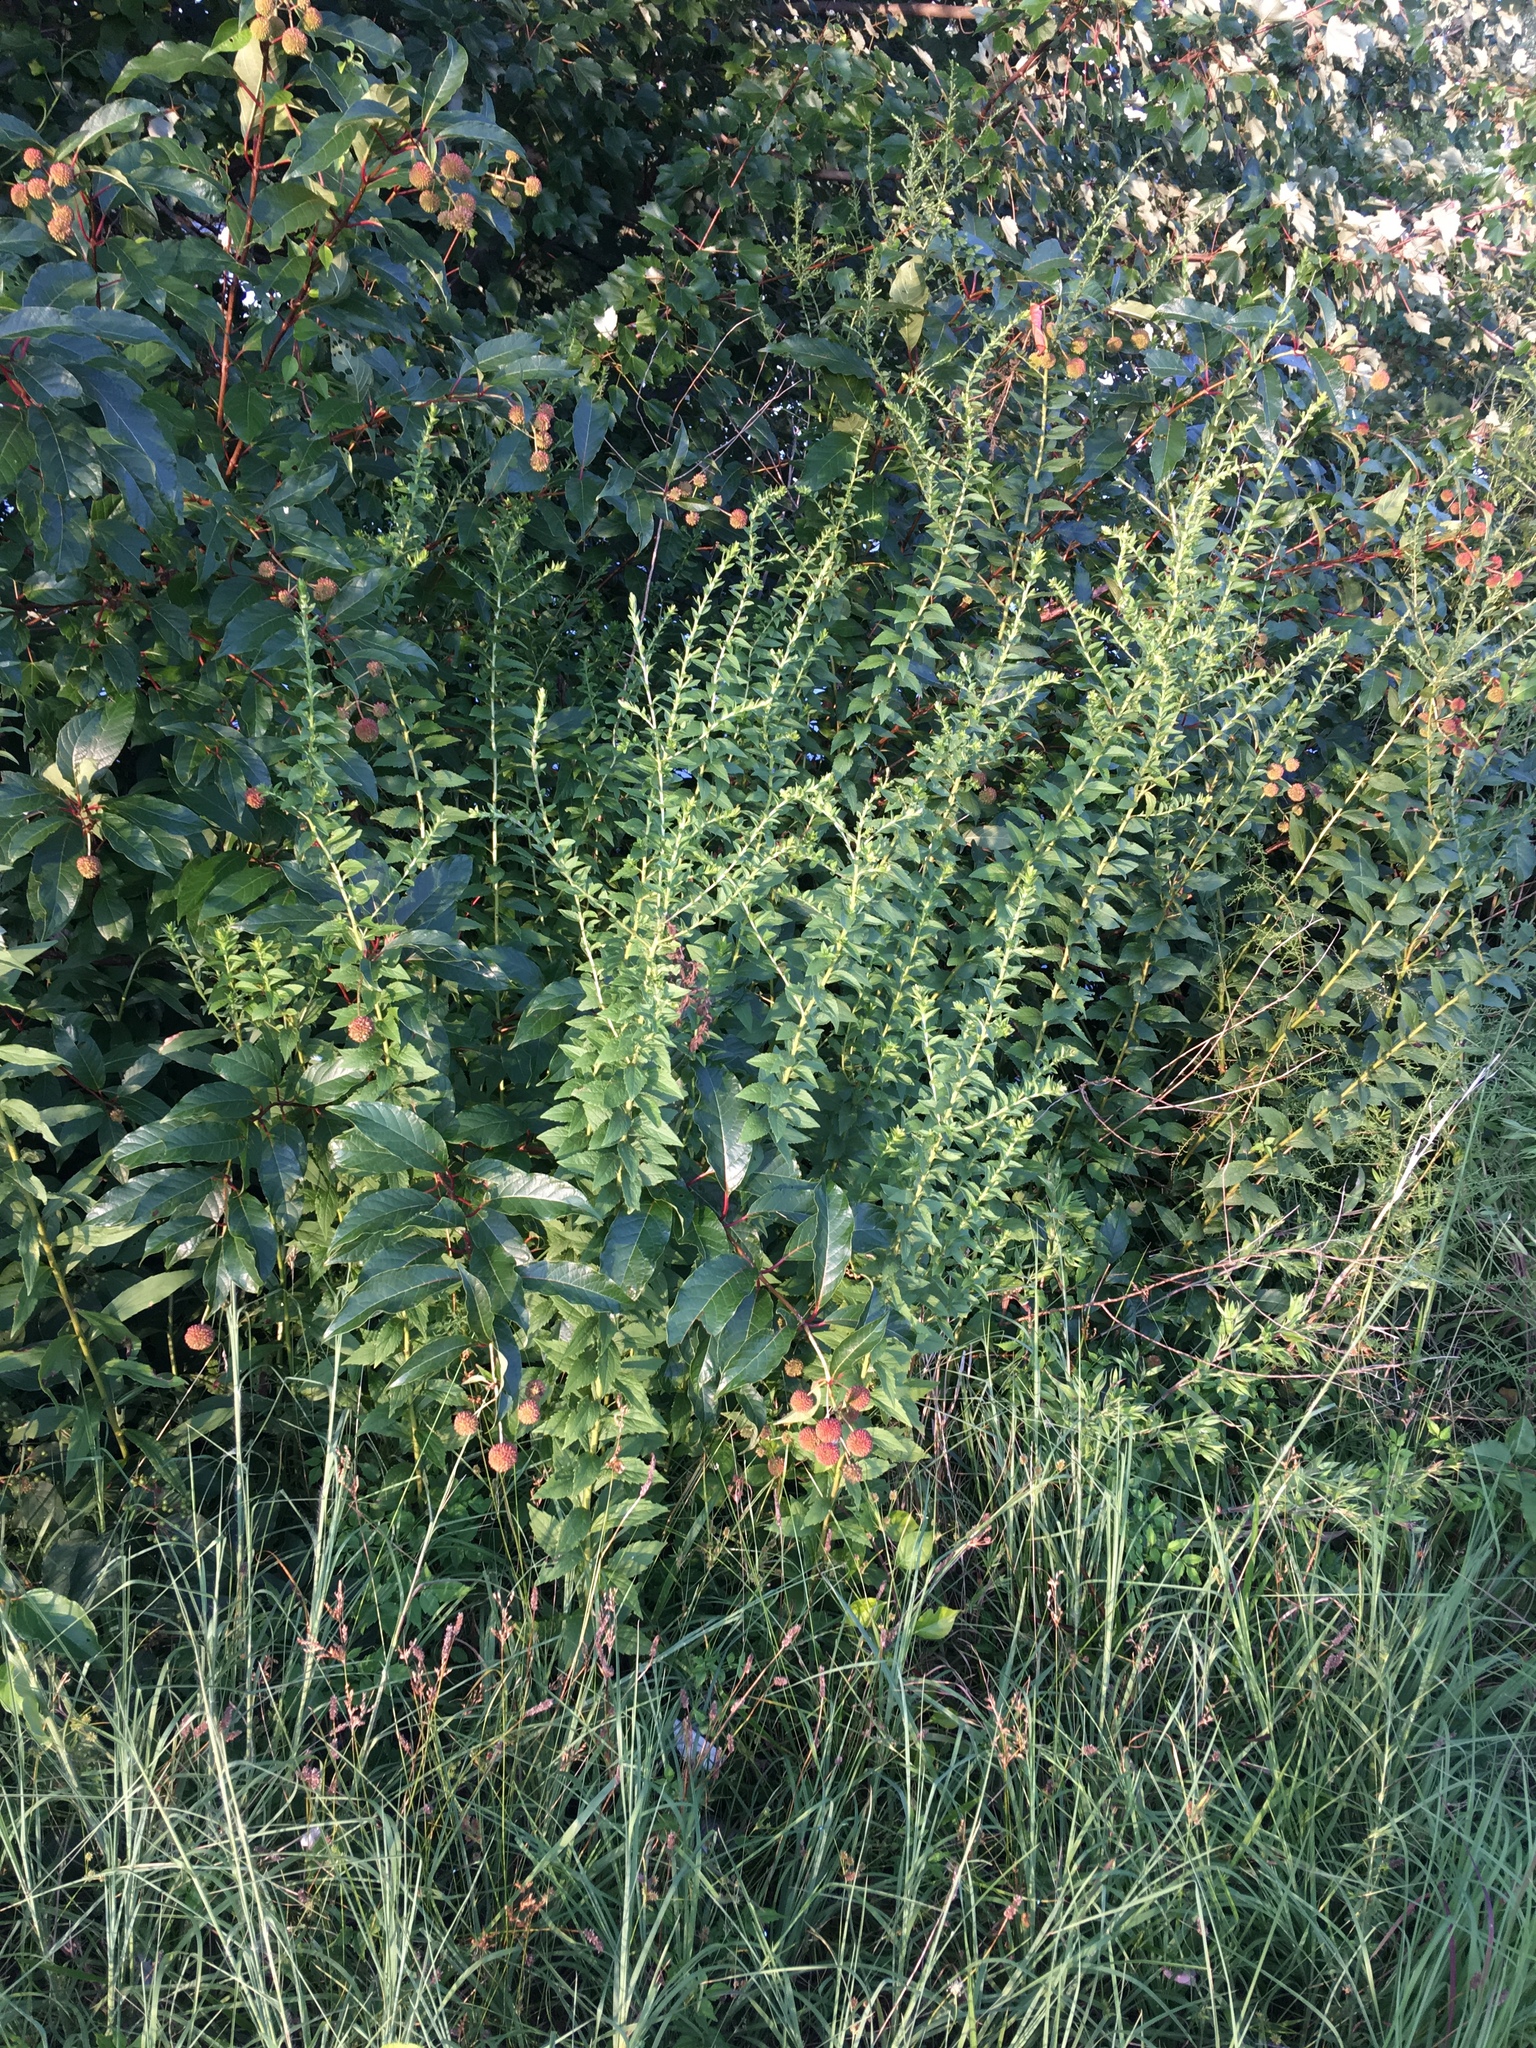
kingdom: Plantae
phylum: Tracheophyta
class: Magnoliopsida
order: Asterales
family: Asteraceae
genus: Solidago
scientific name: Solidago rugosa
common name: Rough-stemmed goldenrod
